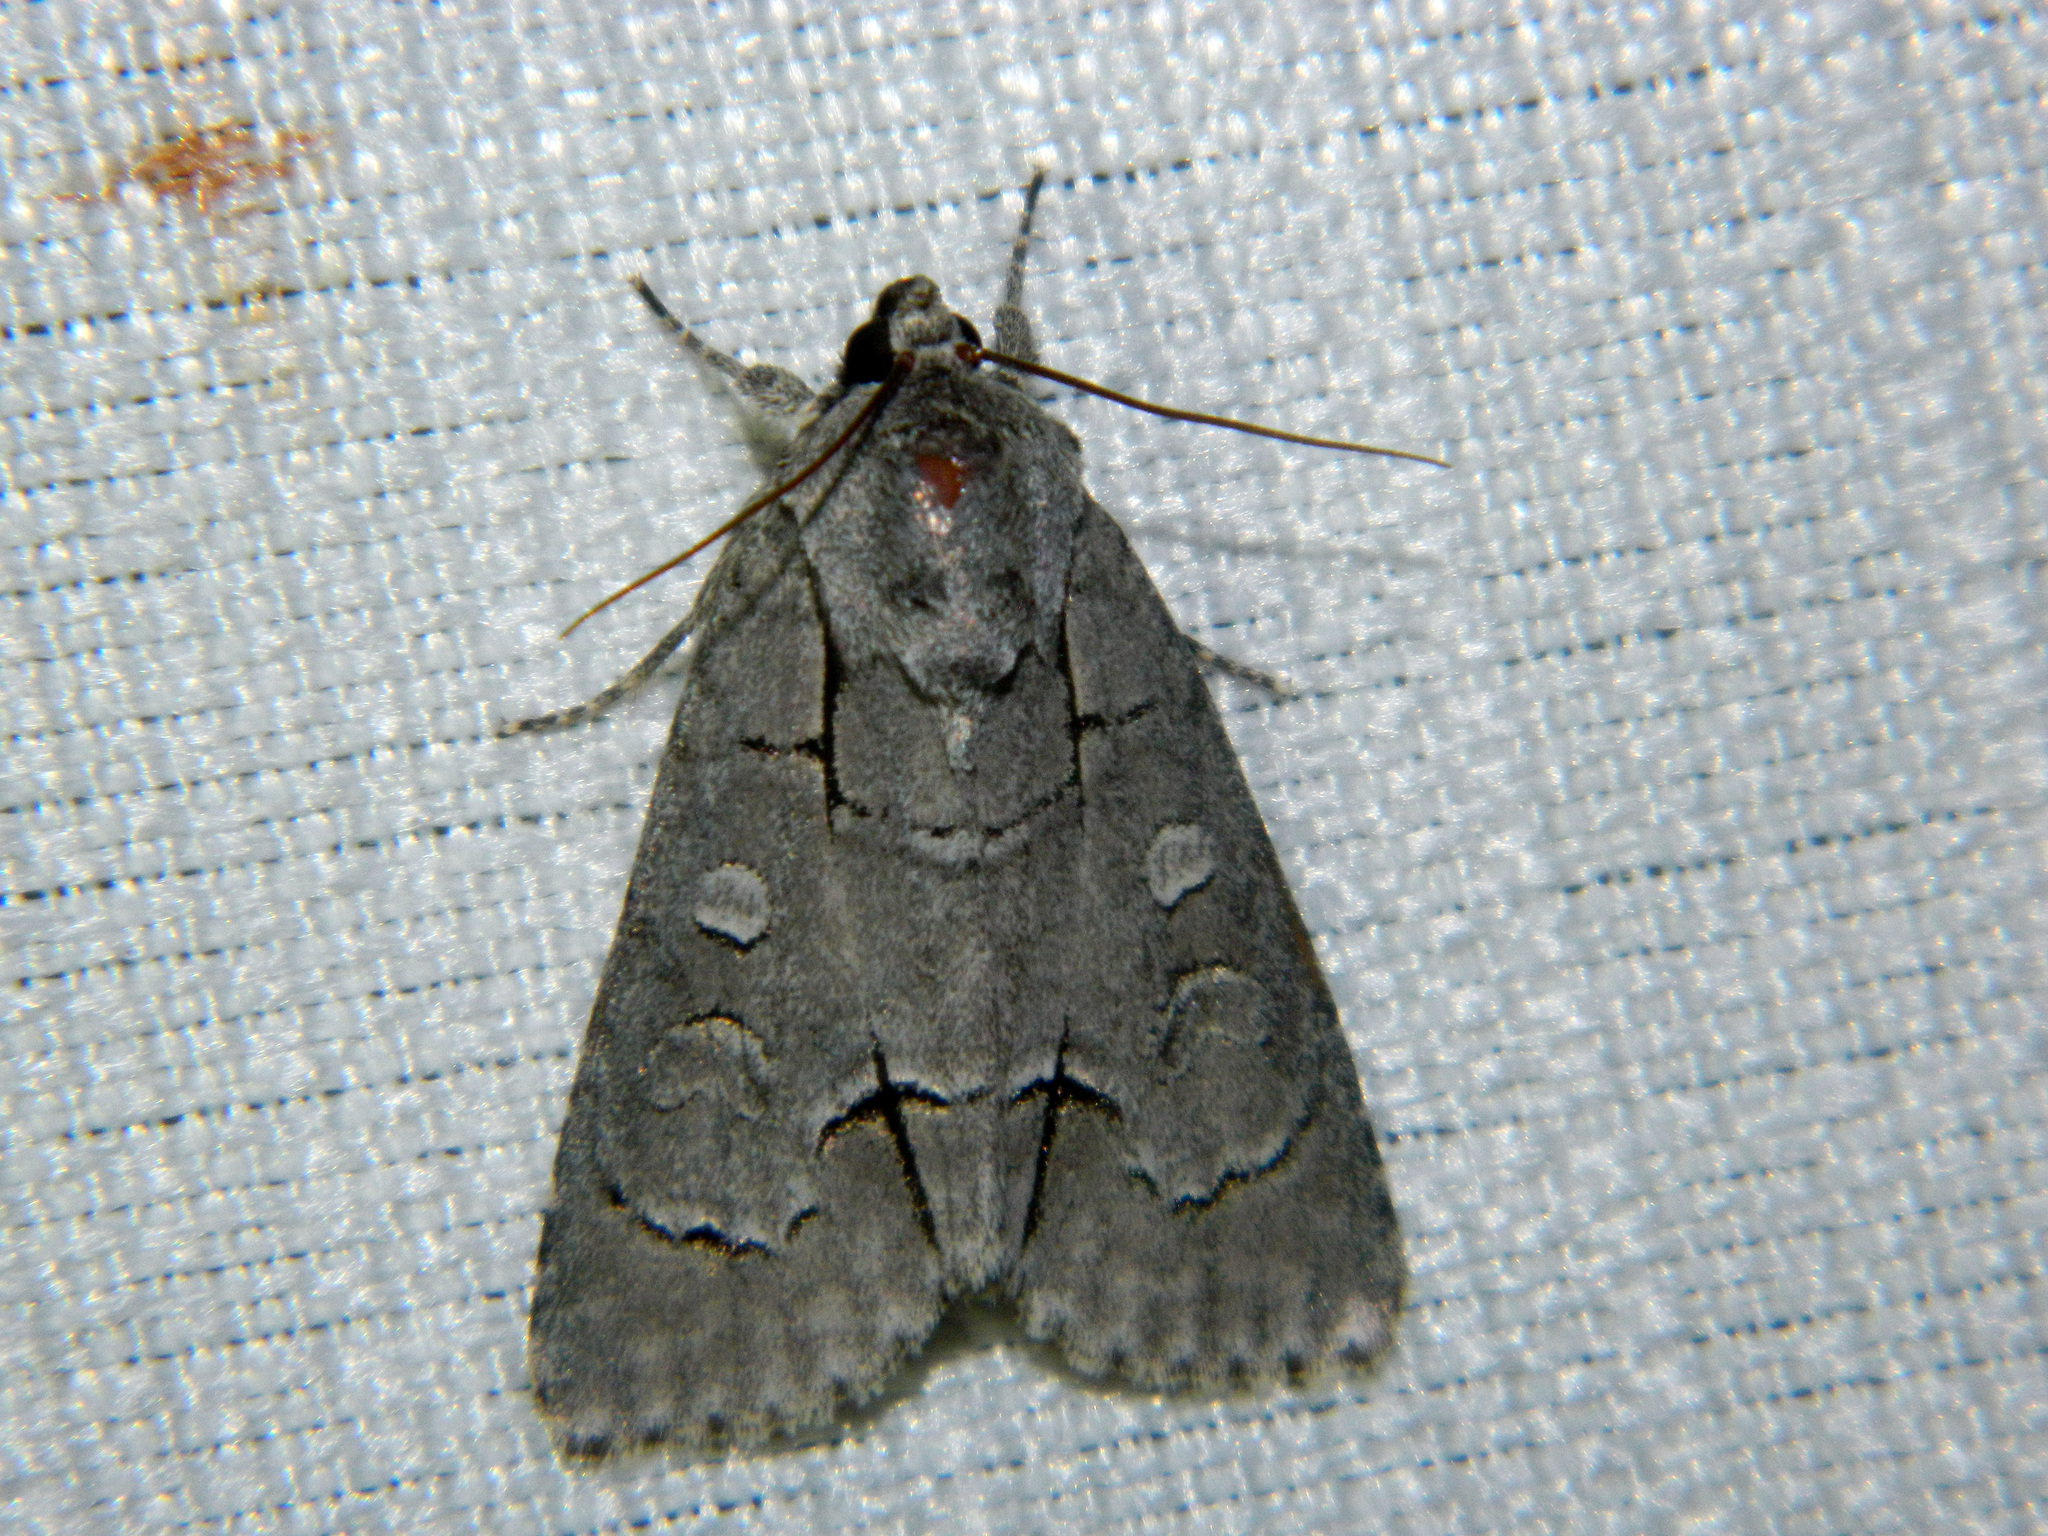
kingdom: Animalia
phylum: Arthropoda
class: Insecta
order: Lepidoptera
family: Noctuidae
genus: Acronicta
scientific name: Acronicta radcliffei
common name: Radcliffe's dagger
